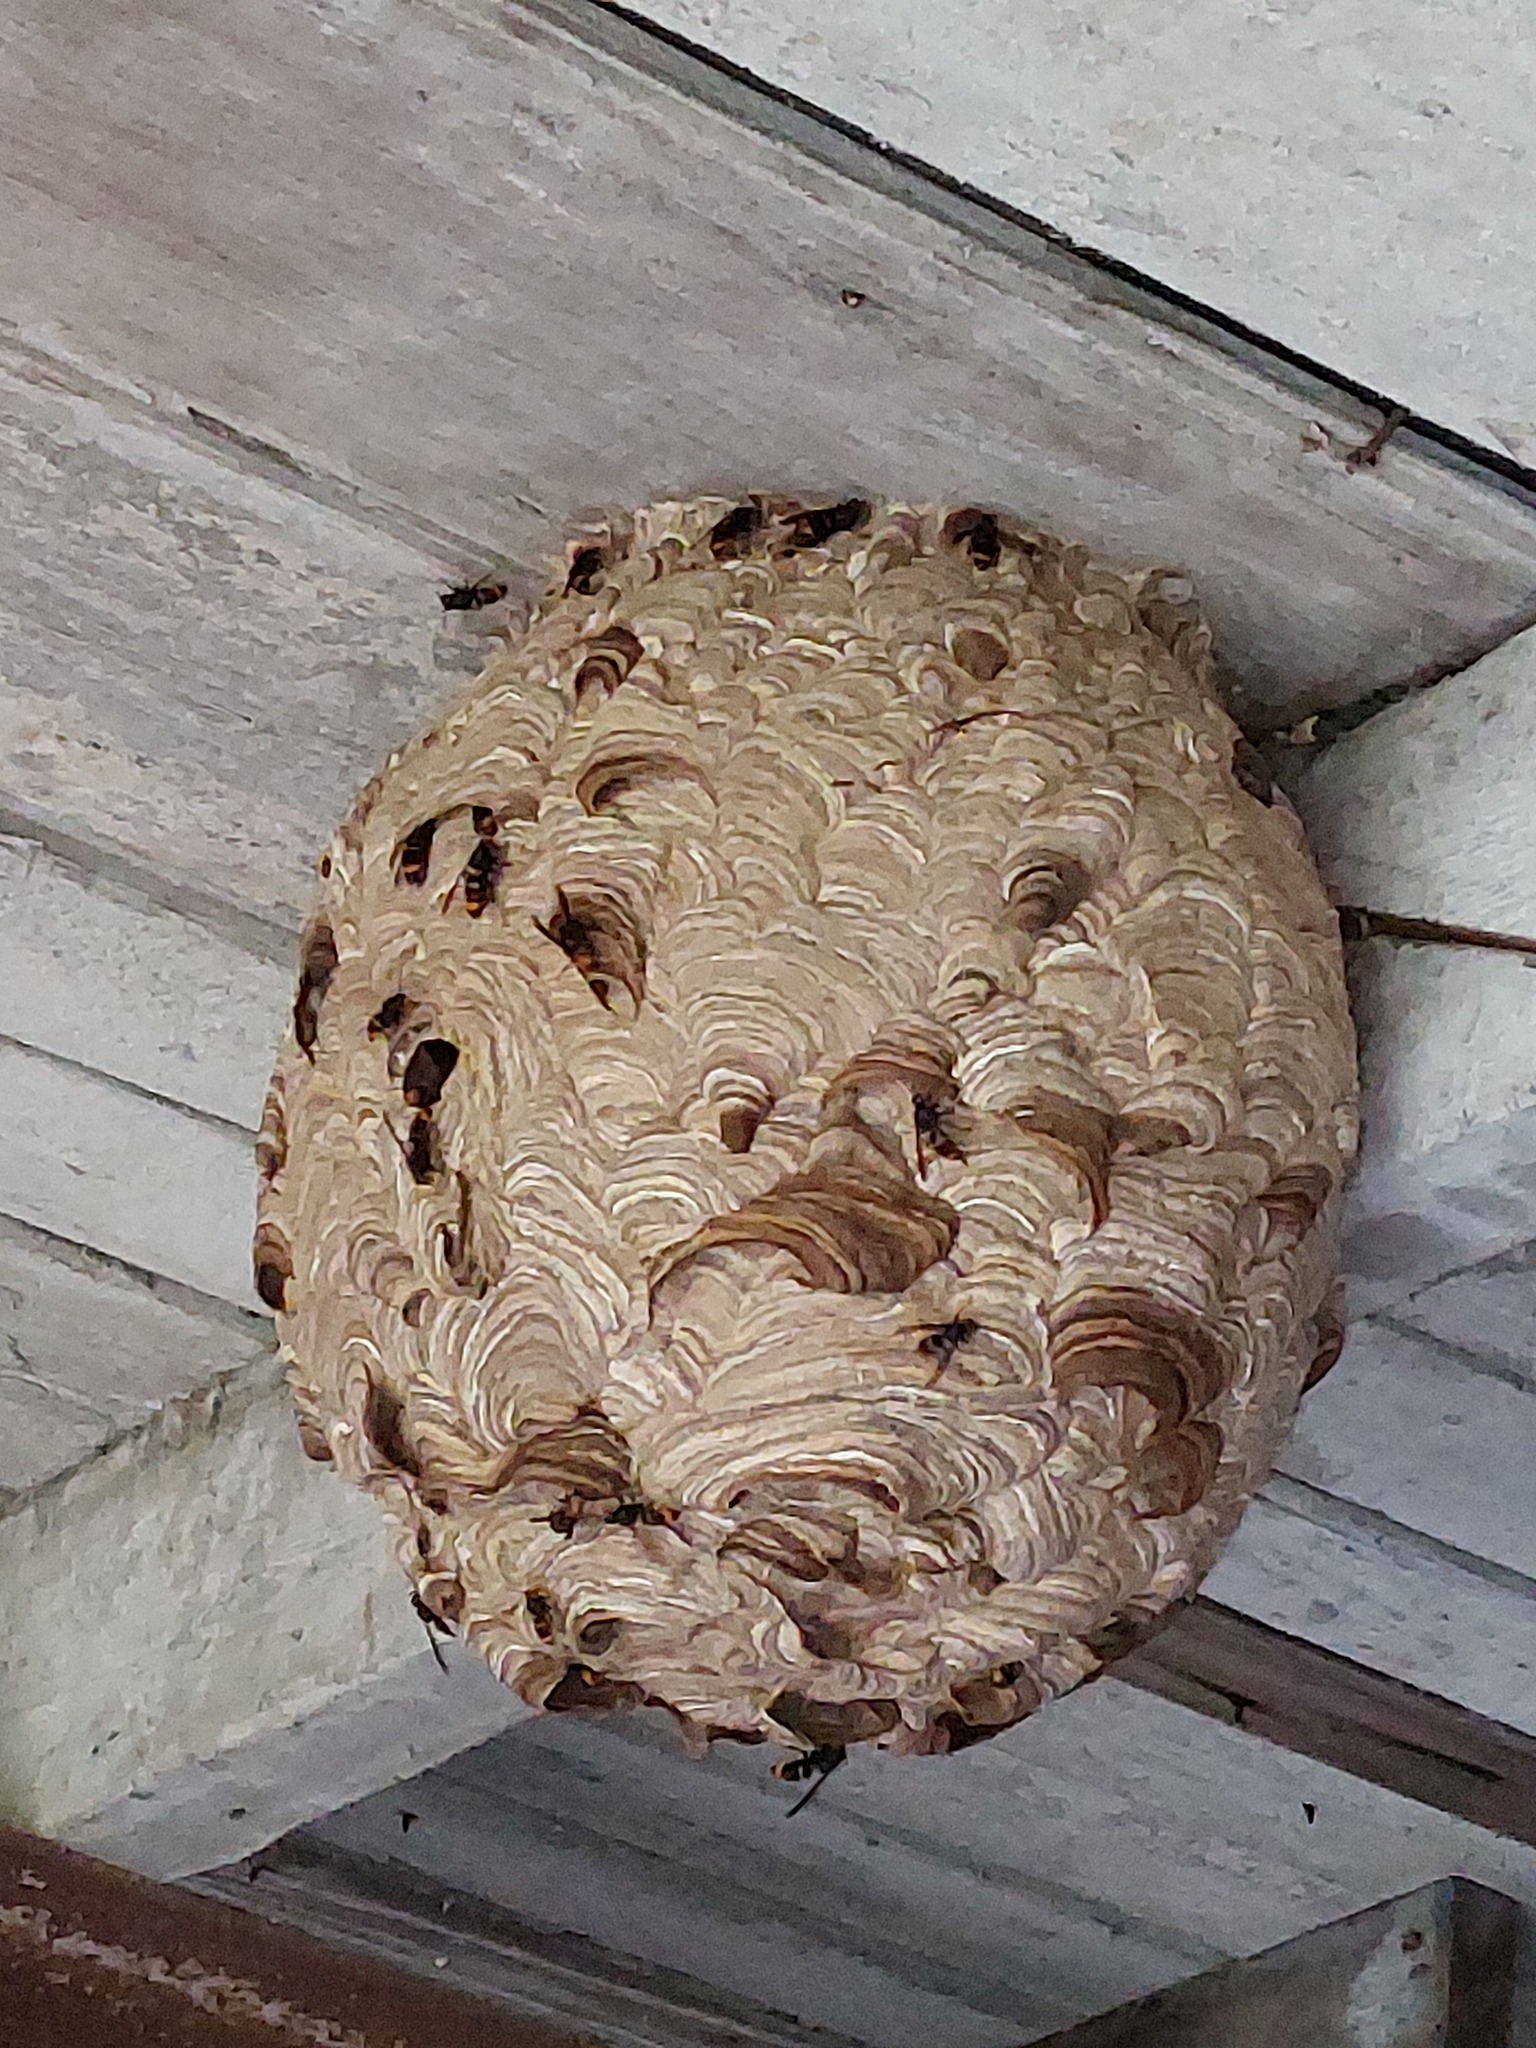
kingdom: Animalia
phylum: Arthropoda
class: Insecta
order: Hymenoptera
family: Vespidae
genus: Vespa
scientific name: Vespa velutina
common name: Asian hornet
